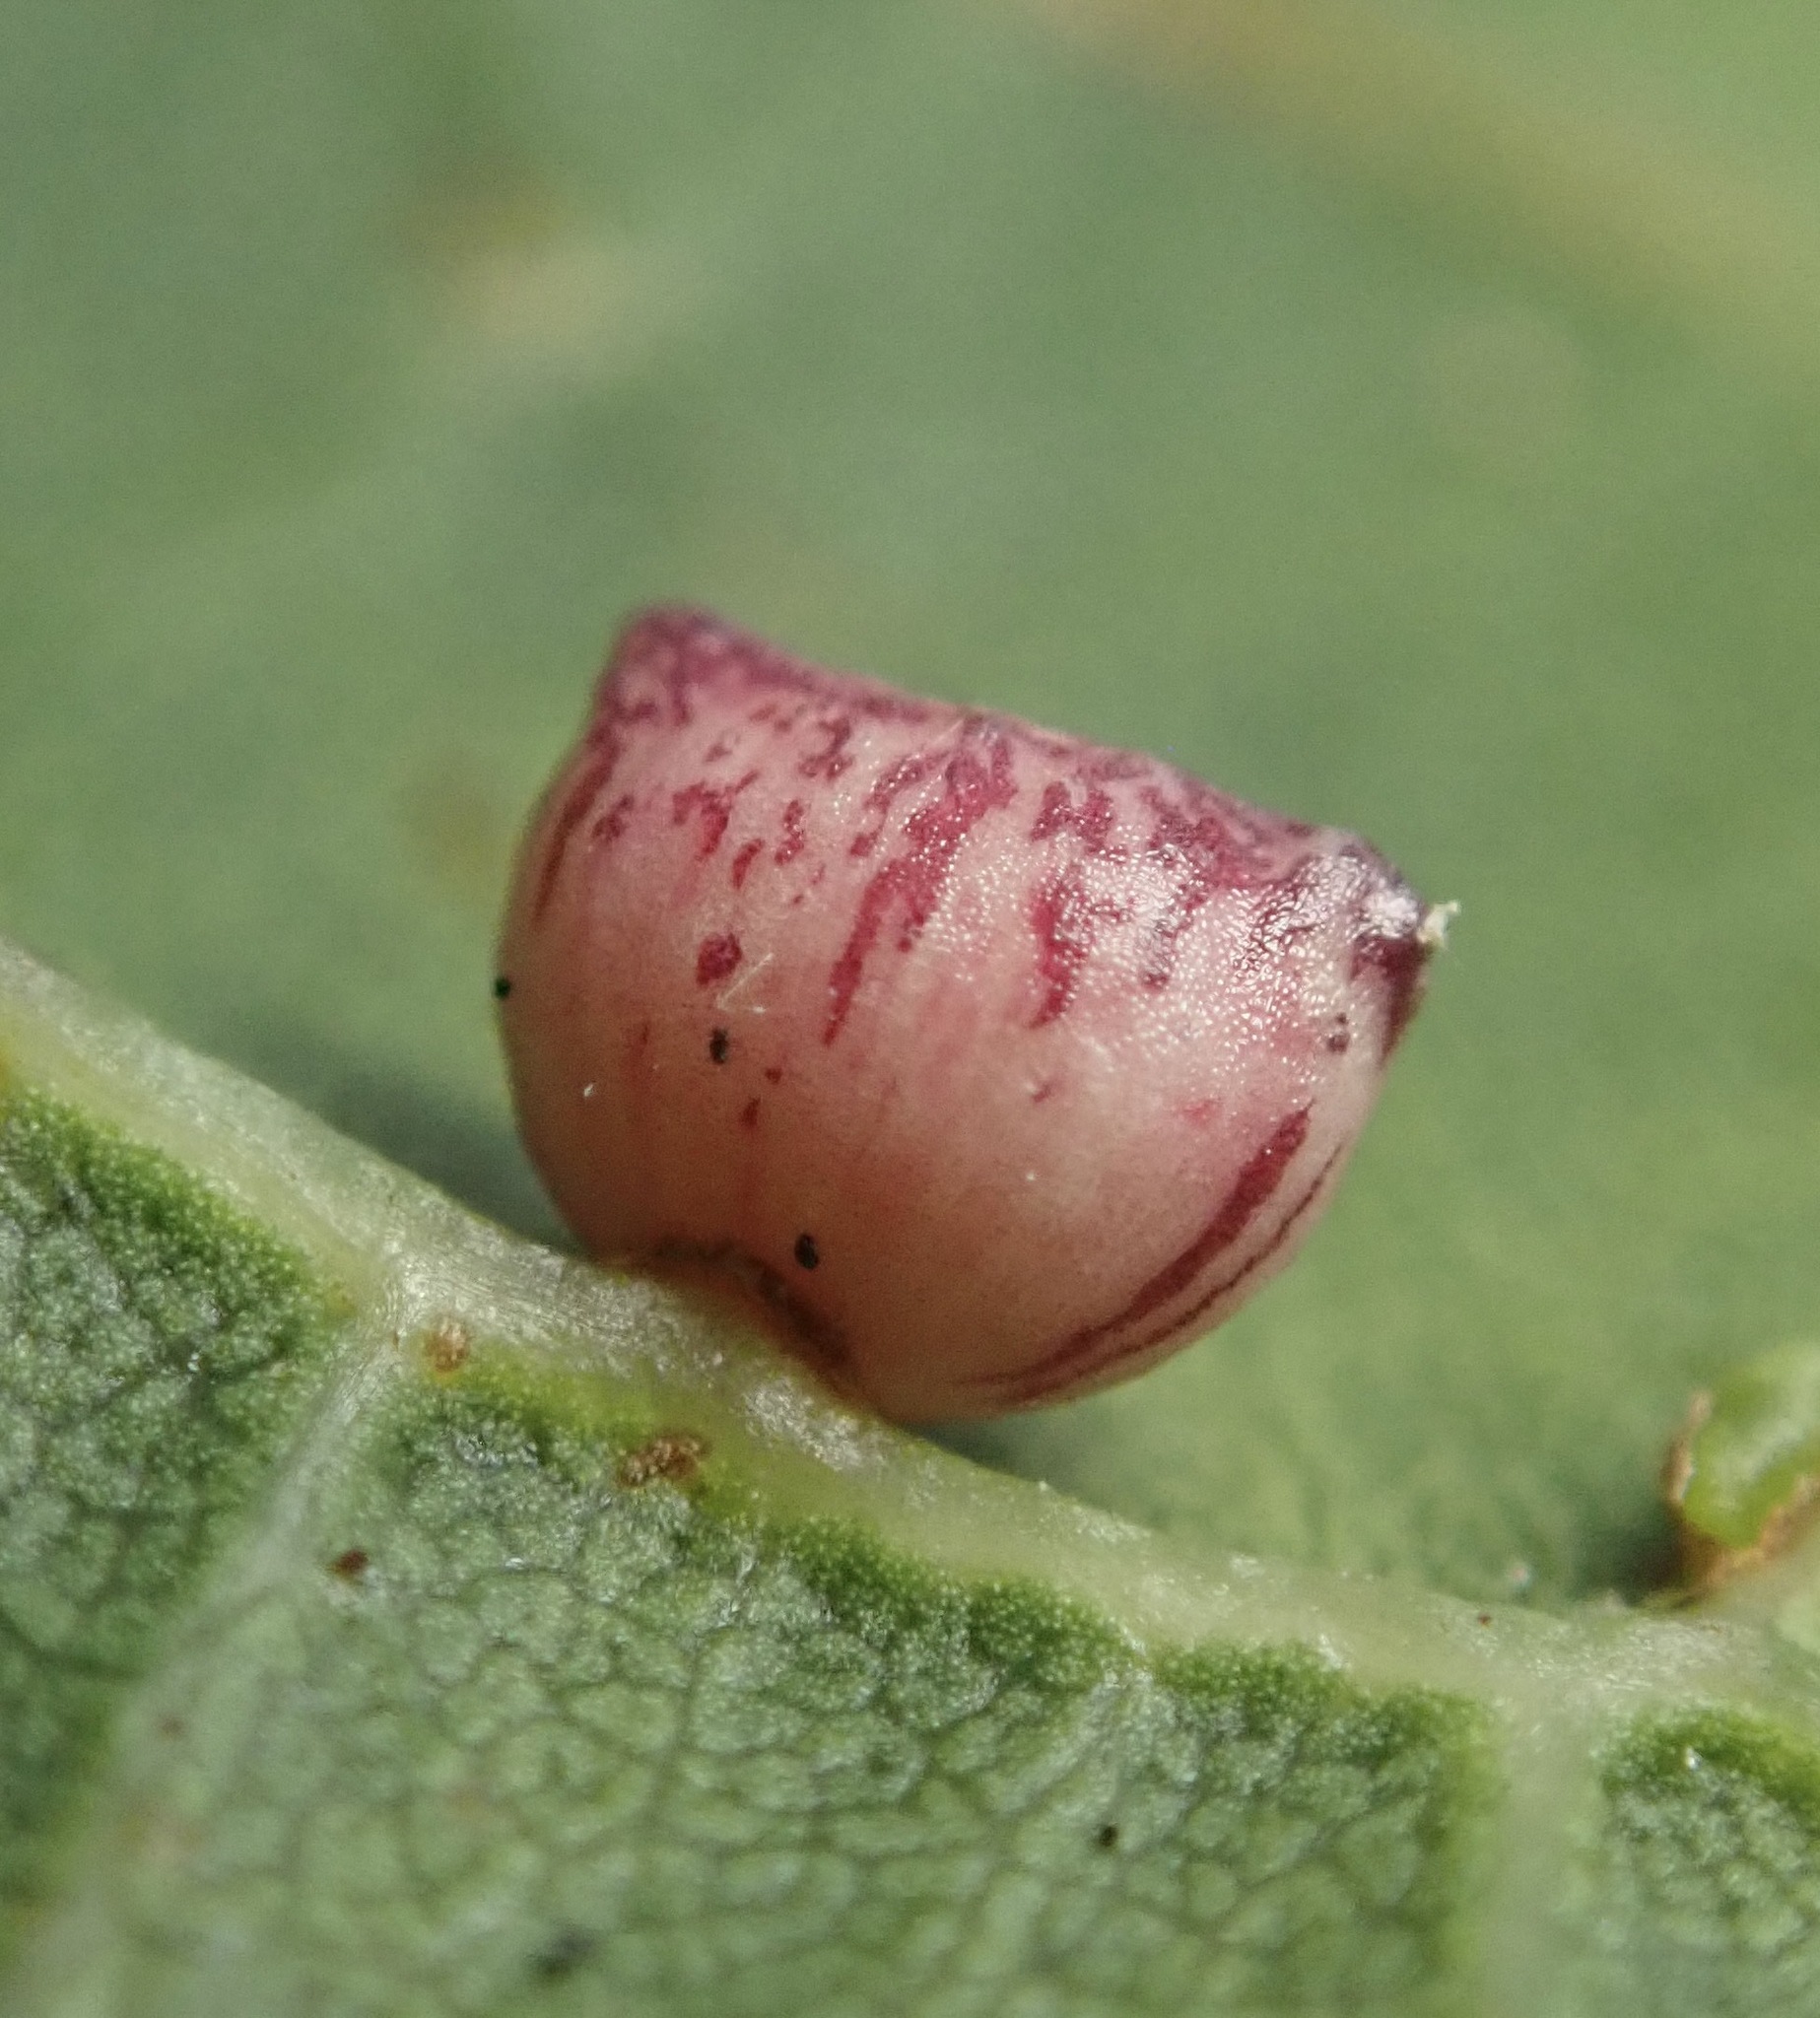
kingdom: Animalia
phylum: Arthropoda
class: Insecta
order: Hymenoptera
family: Cynipidae
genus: Dryocosmus
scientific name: Dryocosmus
